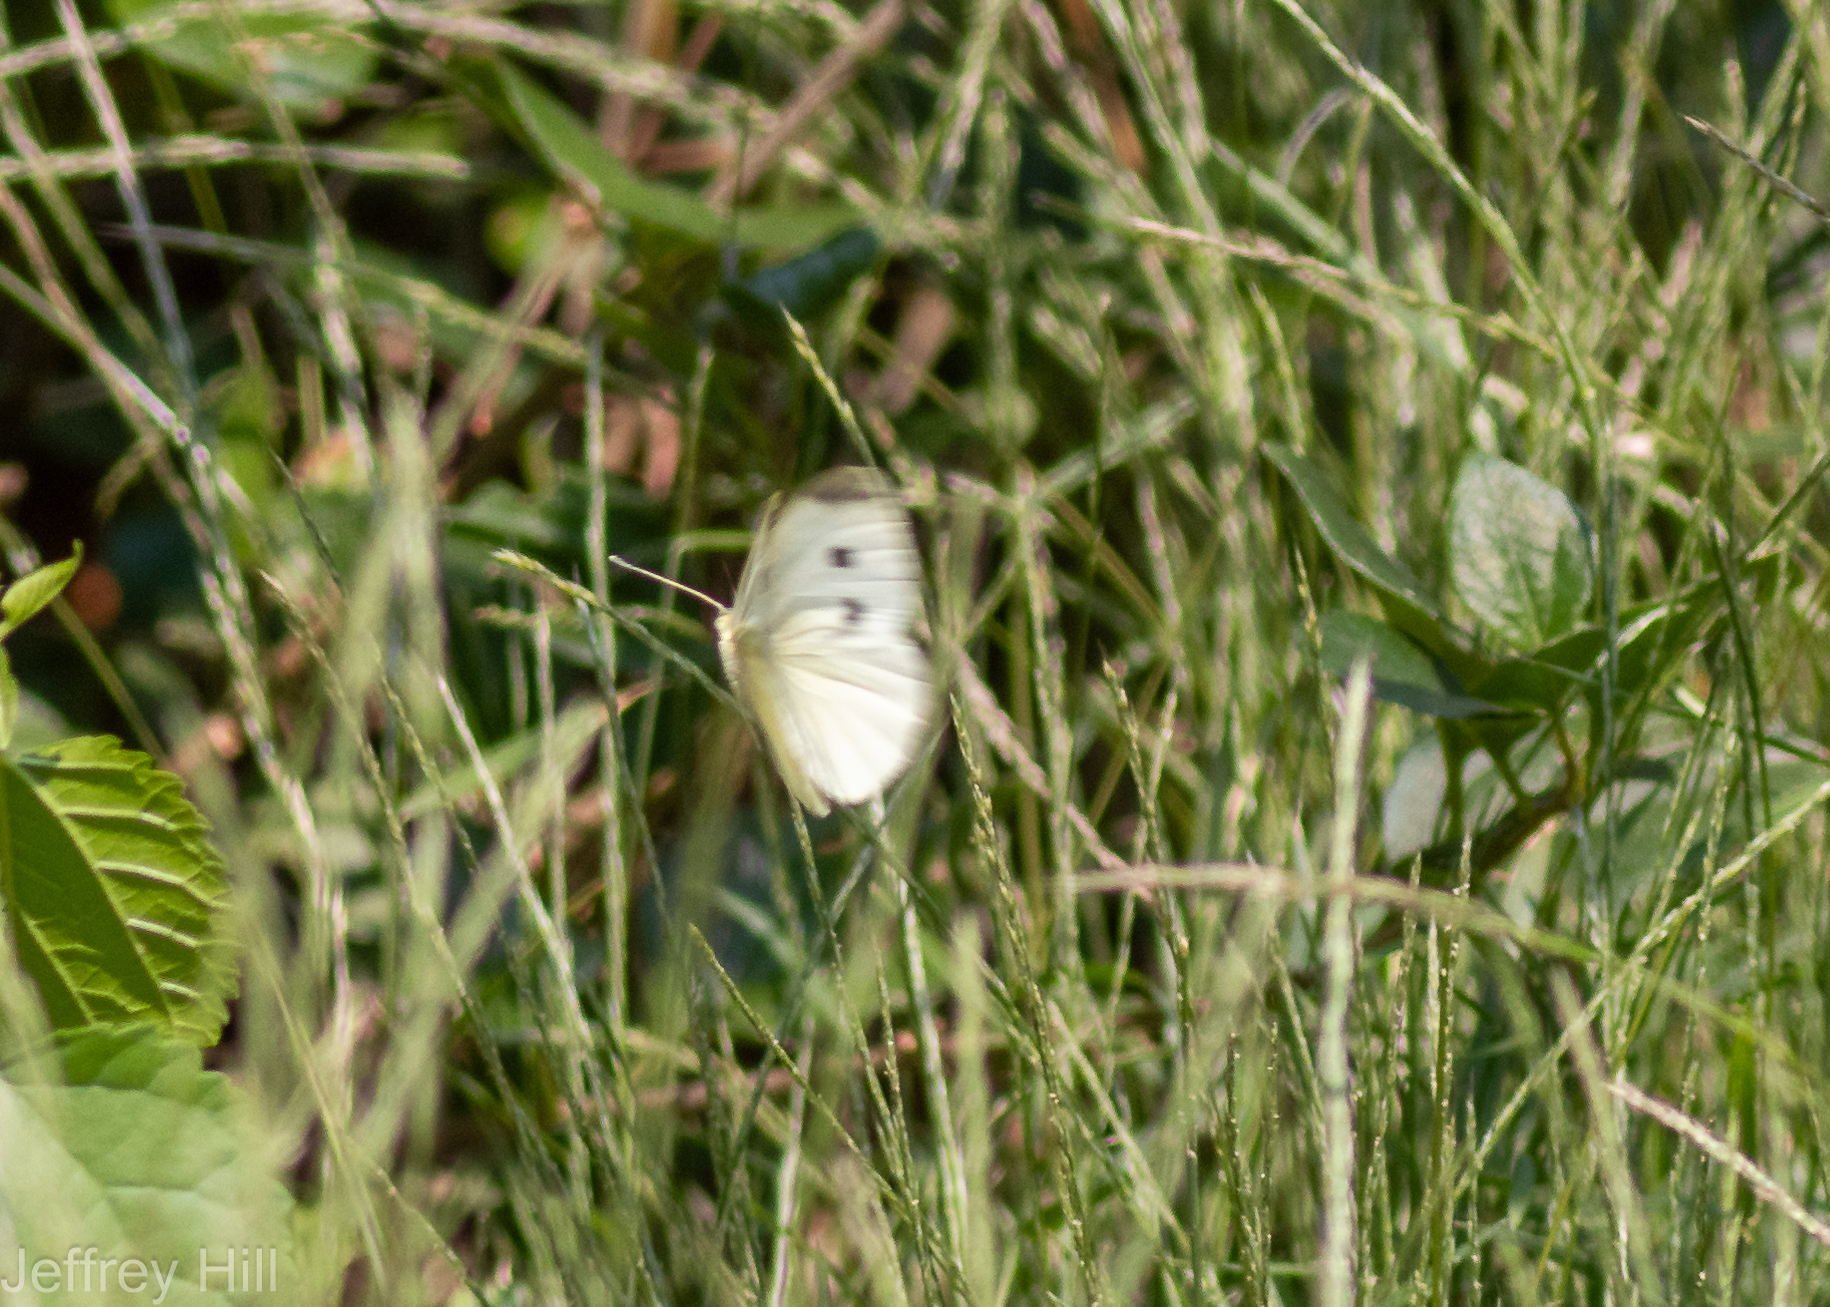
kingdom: Animalia
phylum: Arthropoda
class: Insecta
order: Lepidoptera
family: Pieridae
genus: Pieris
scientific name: Pieris rapae
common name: Small white
